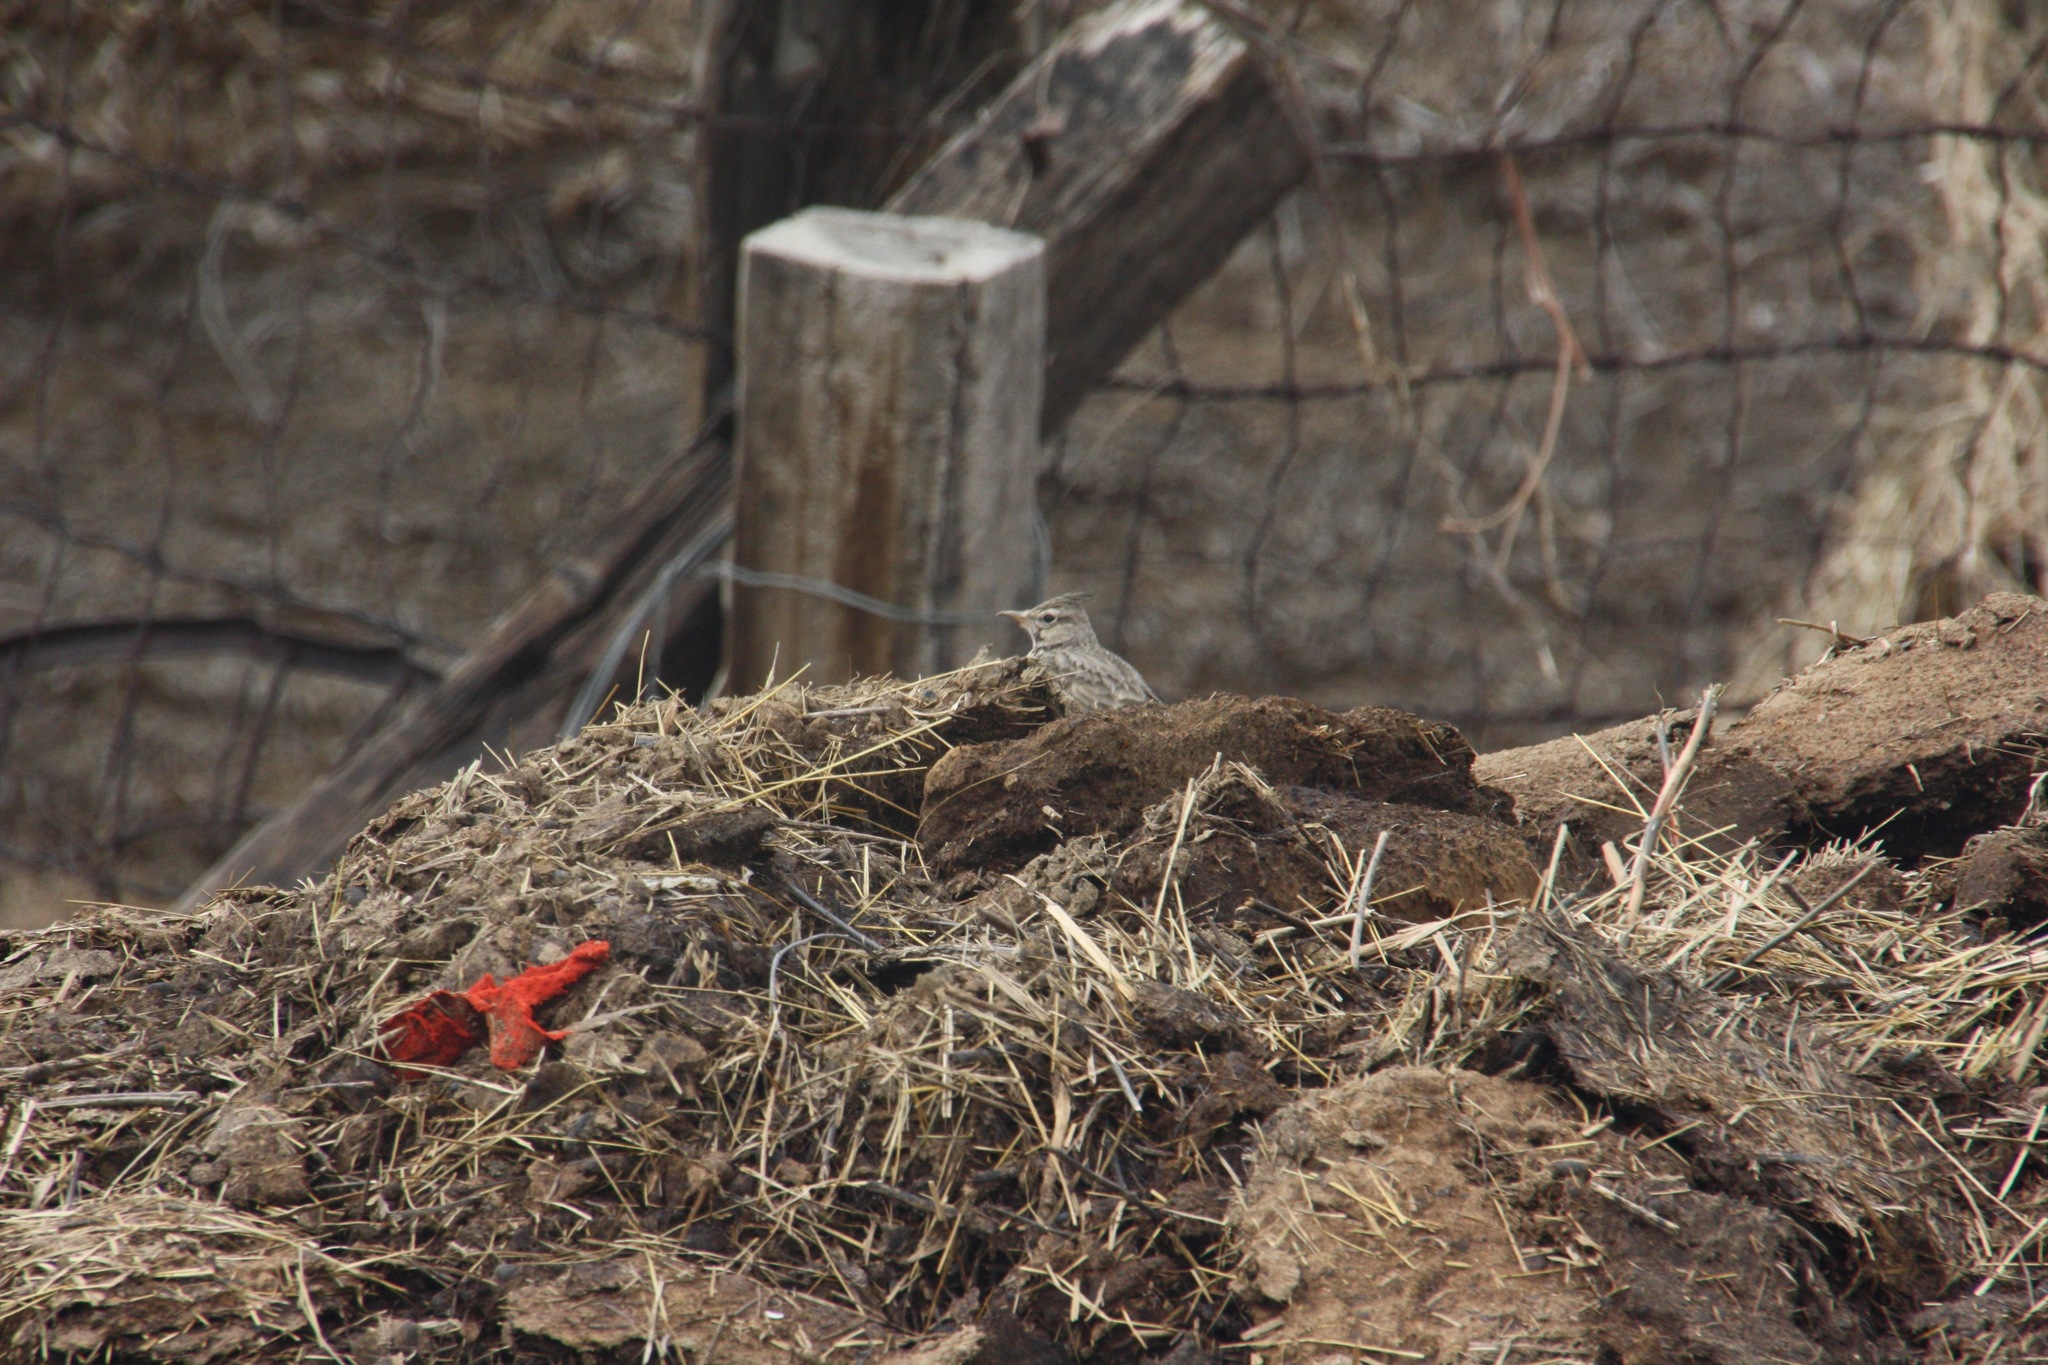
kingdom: Animalia
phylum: Chordata
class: Aves
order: Passeriformes
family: Alaudidae
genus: Galerida
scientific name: Galerida cristata
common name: Crested lark
